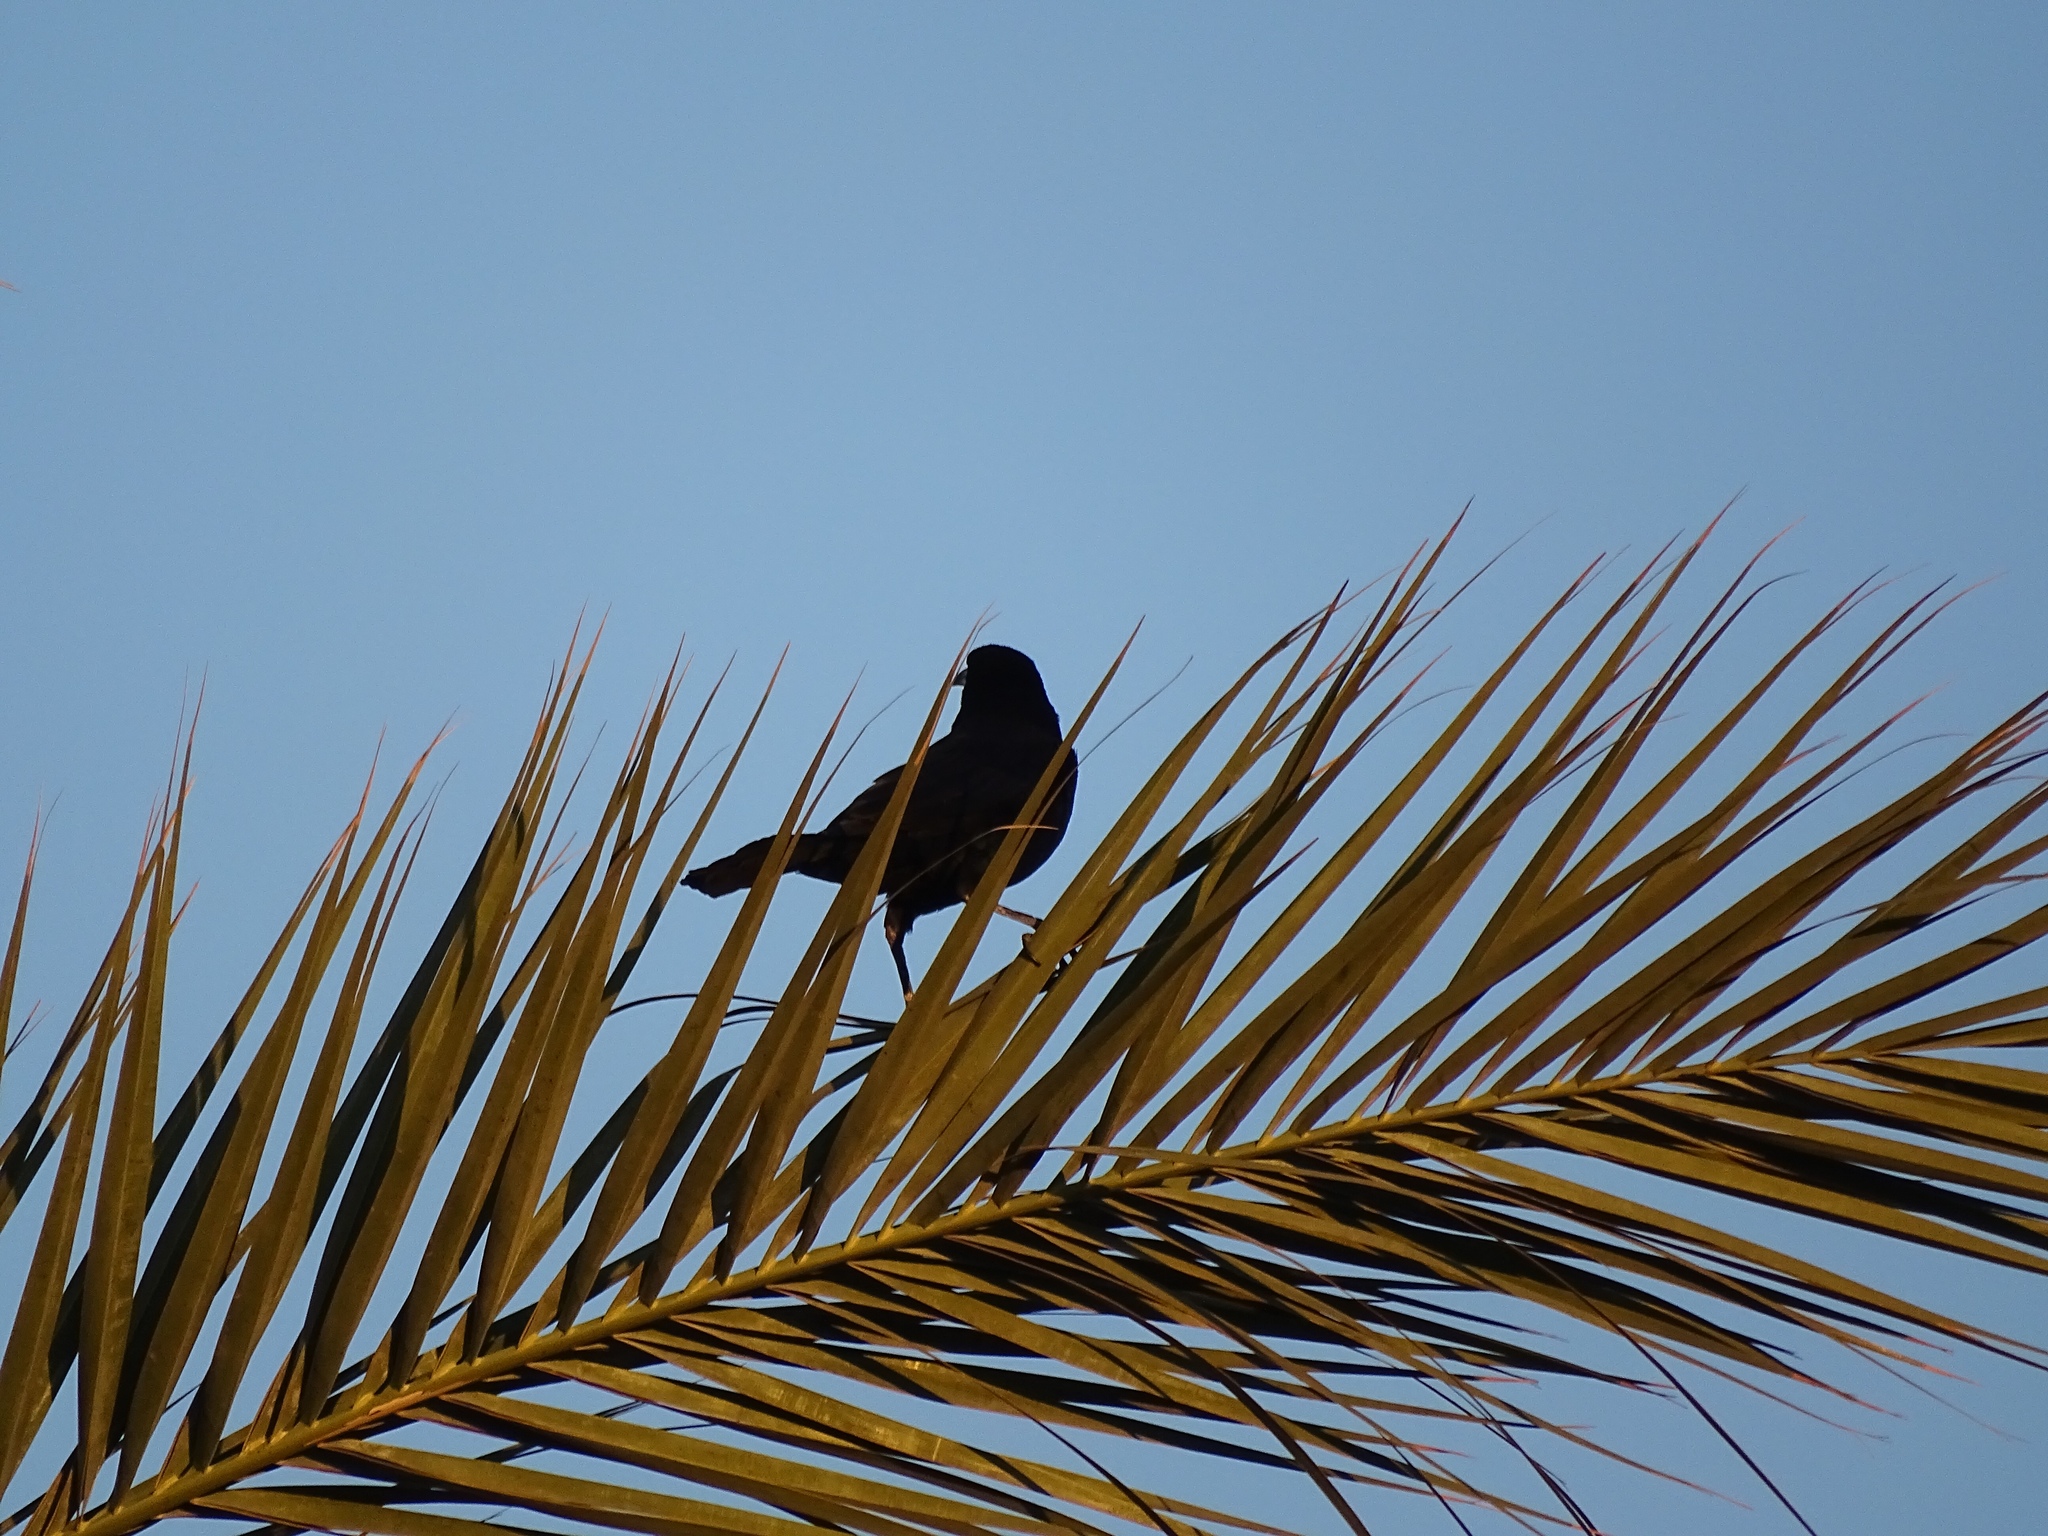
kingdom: Animalia
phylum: Chordata
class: Aves
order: Passeriformes
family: Icteridae
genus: Quiscalus
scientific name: Quiscalus mexicanus
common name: Great-tailed grackle
